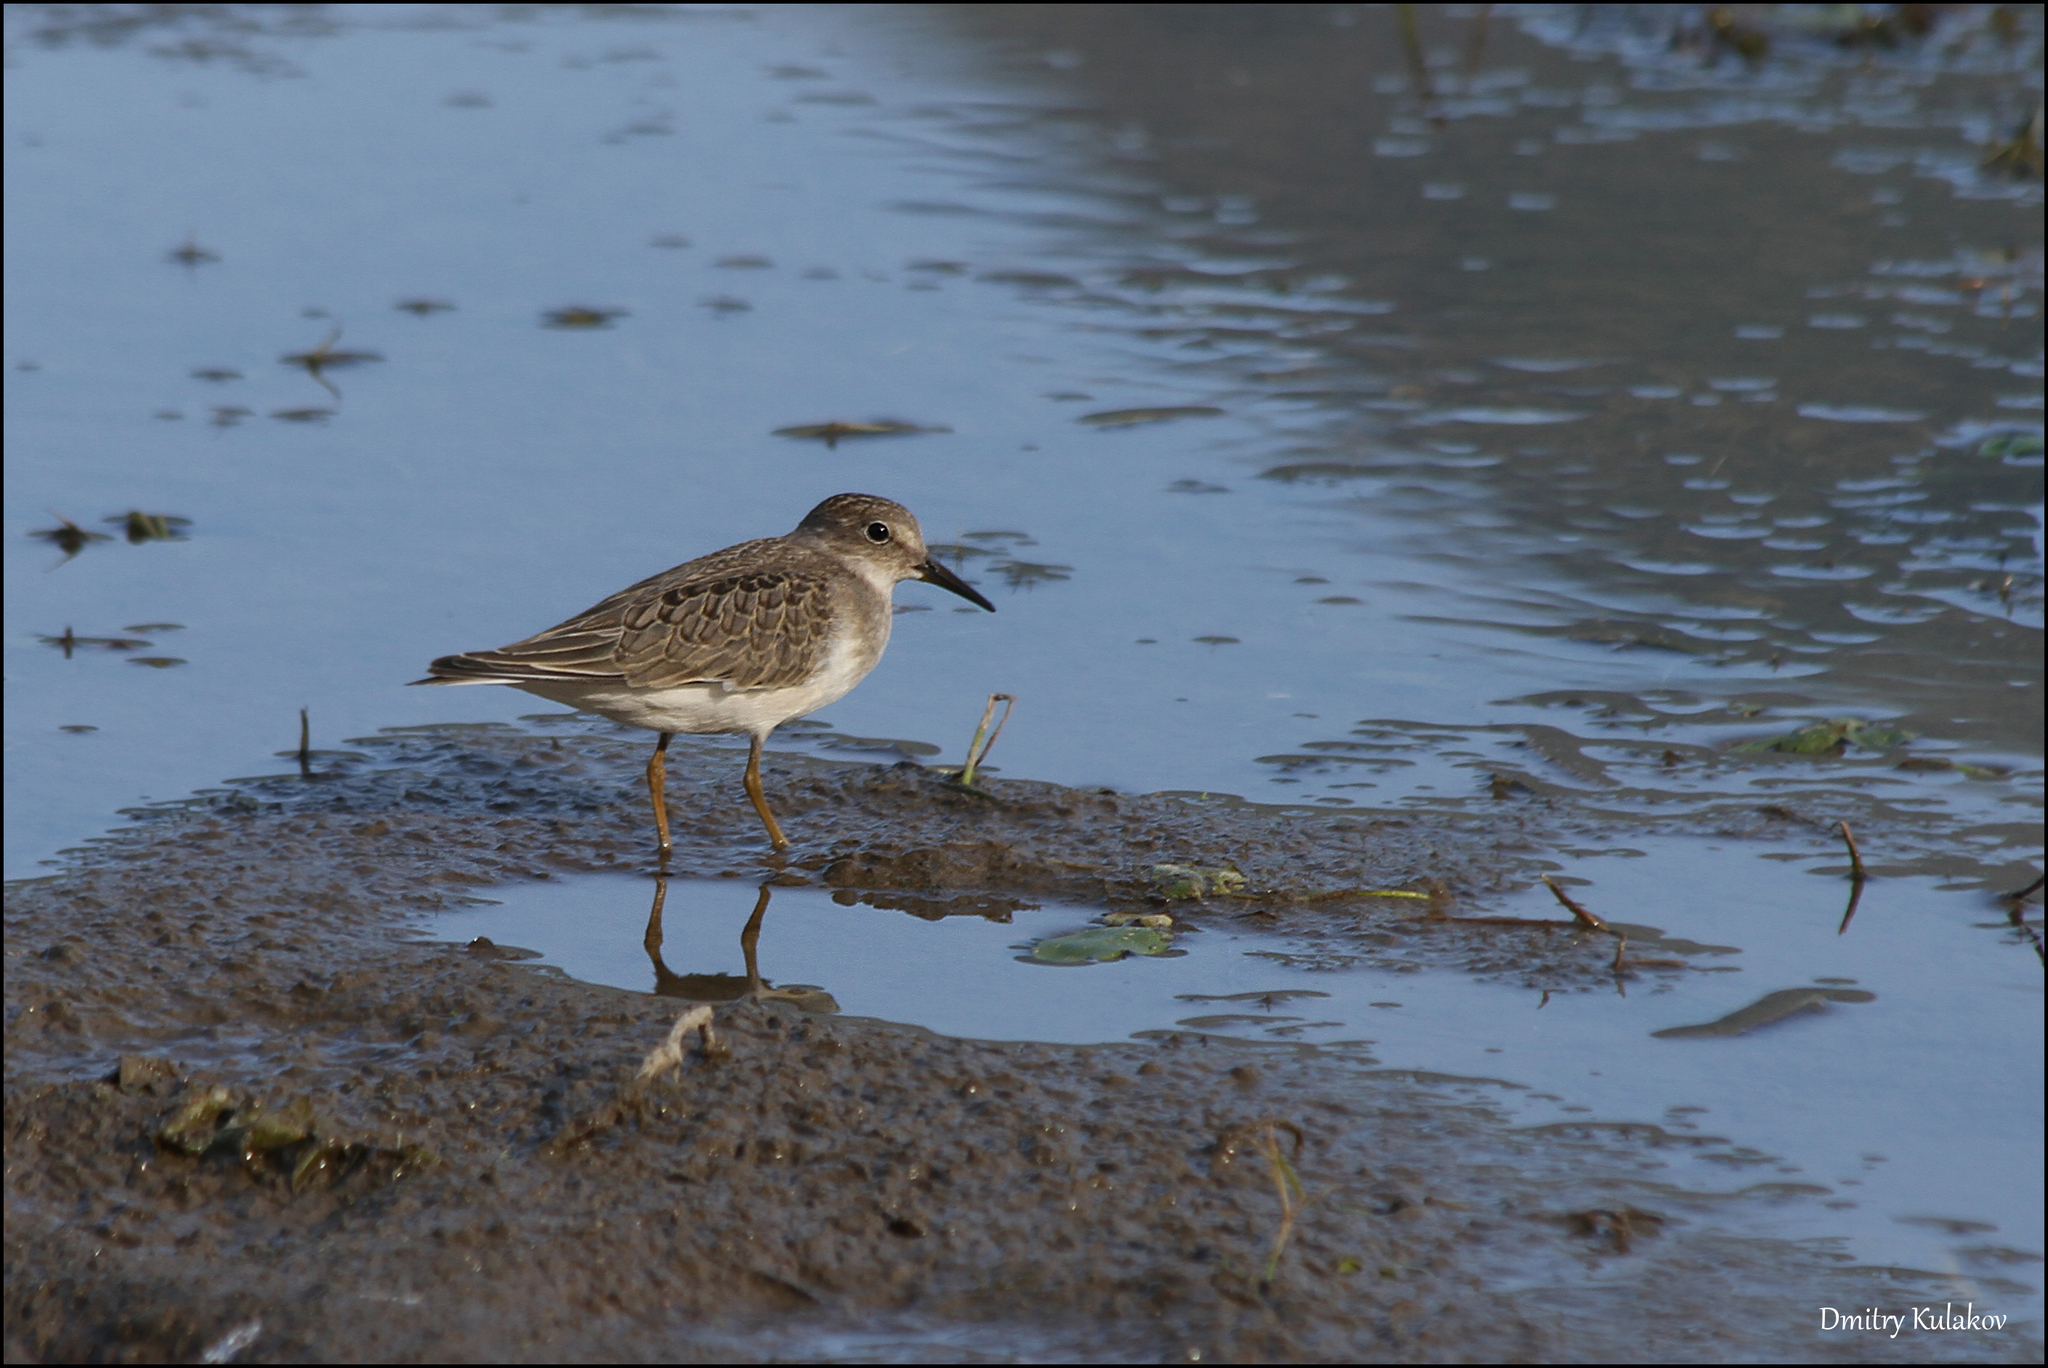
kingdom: Animalia
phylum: Chordata
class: Aves
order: Charadriiformes
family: Scolopacidae
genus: Calidris
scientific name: Calidris temminckii
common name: Temminck's stint
